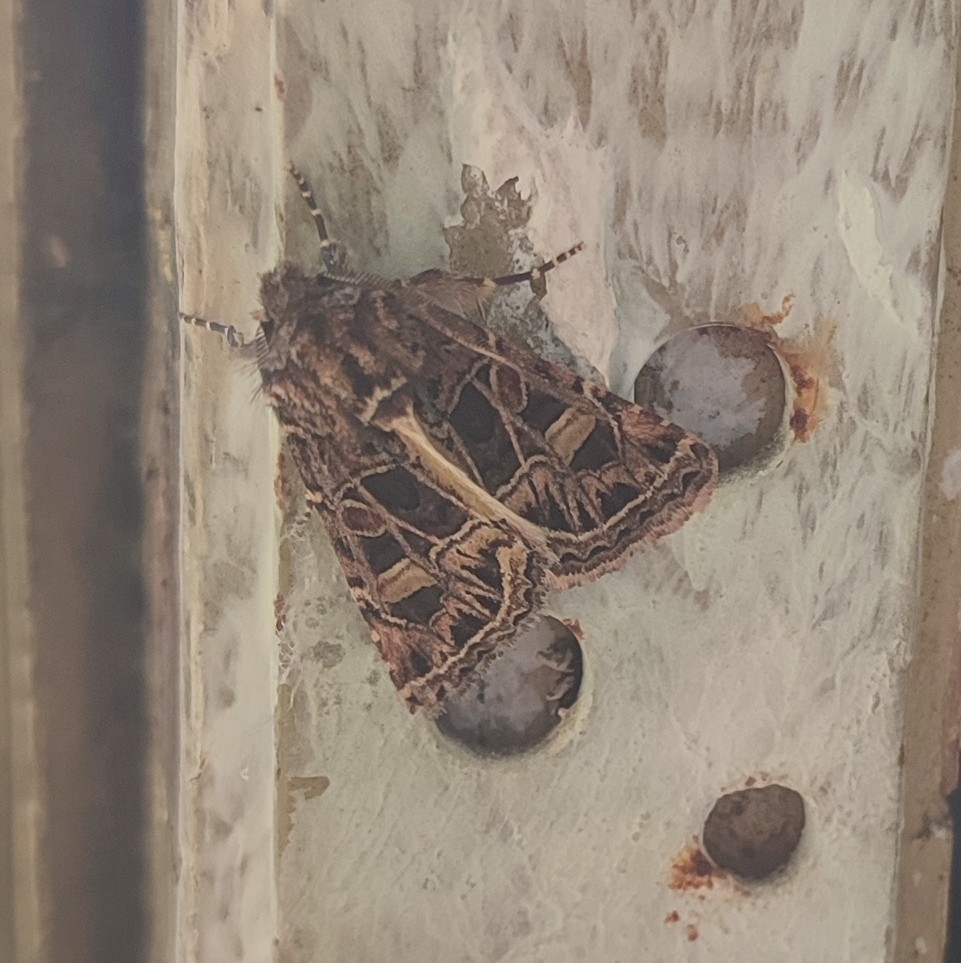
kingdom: Animalia
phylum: Arthropoda
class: Insecta
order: Lepidoptera
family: Noctuidae
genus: Leucochlaena
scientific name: Leucochlaena oditis
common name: Beautiful gothic
